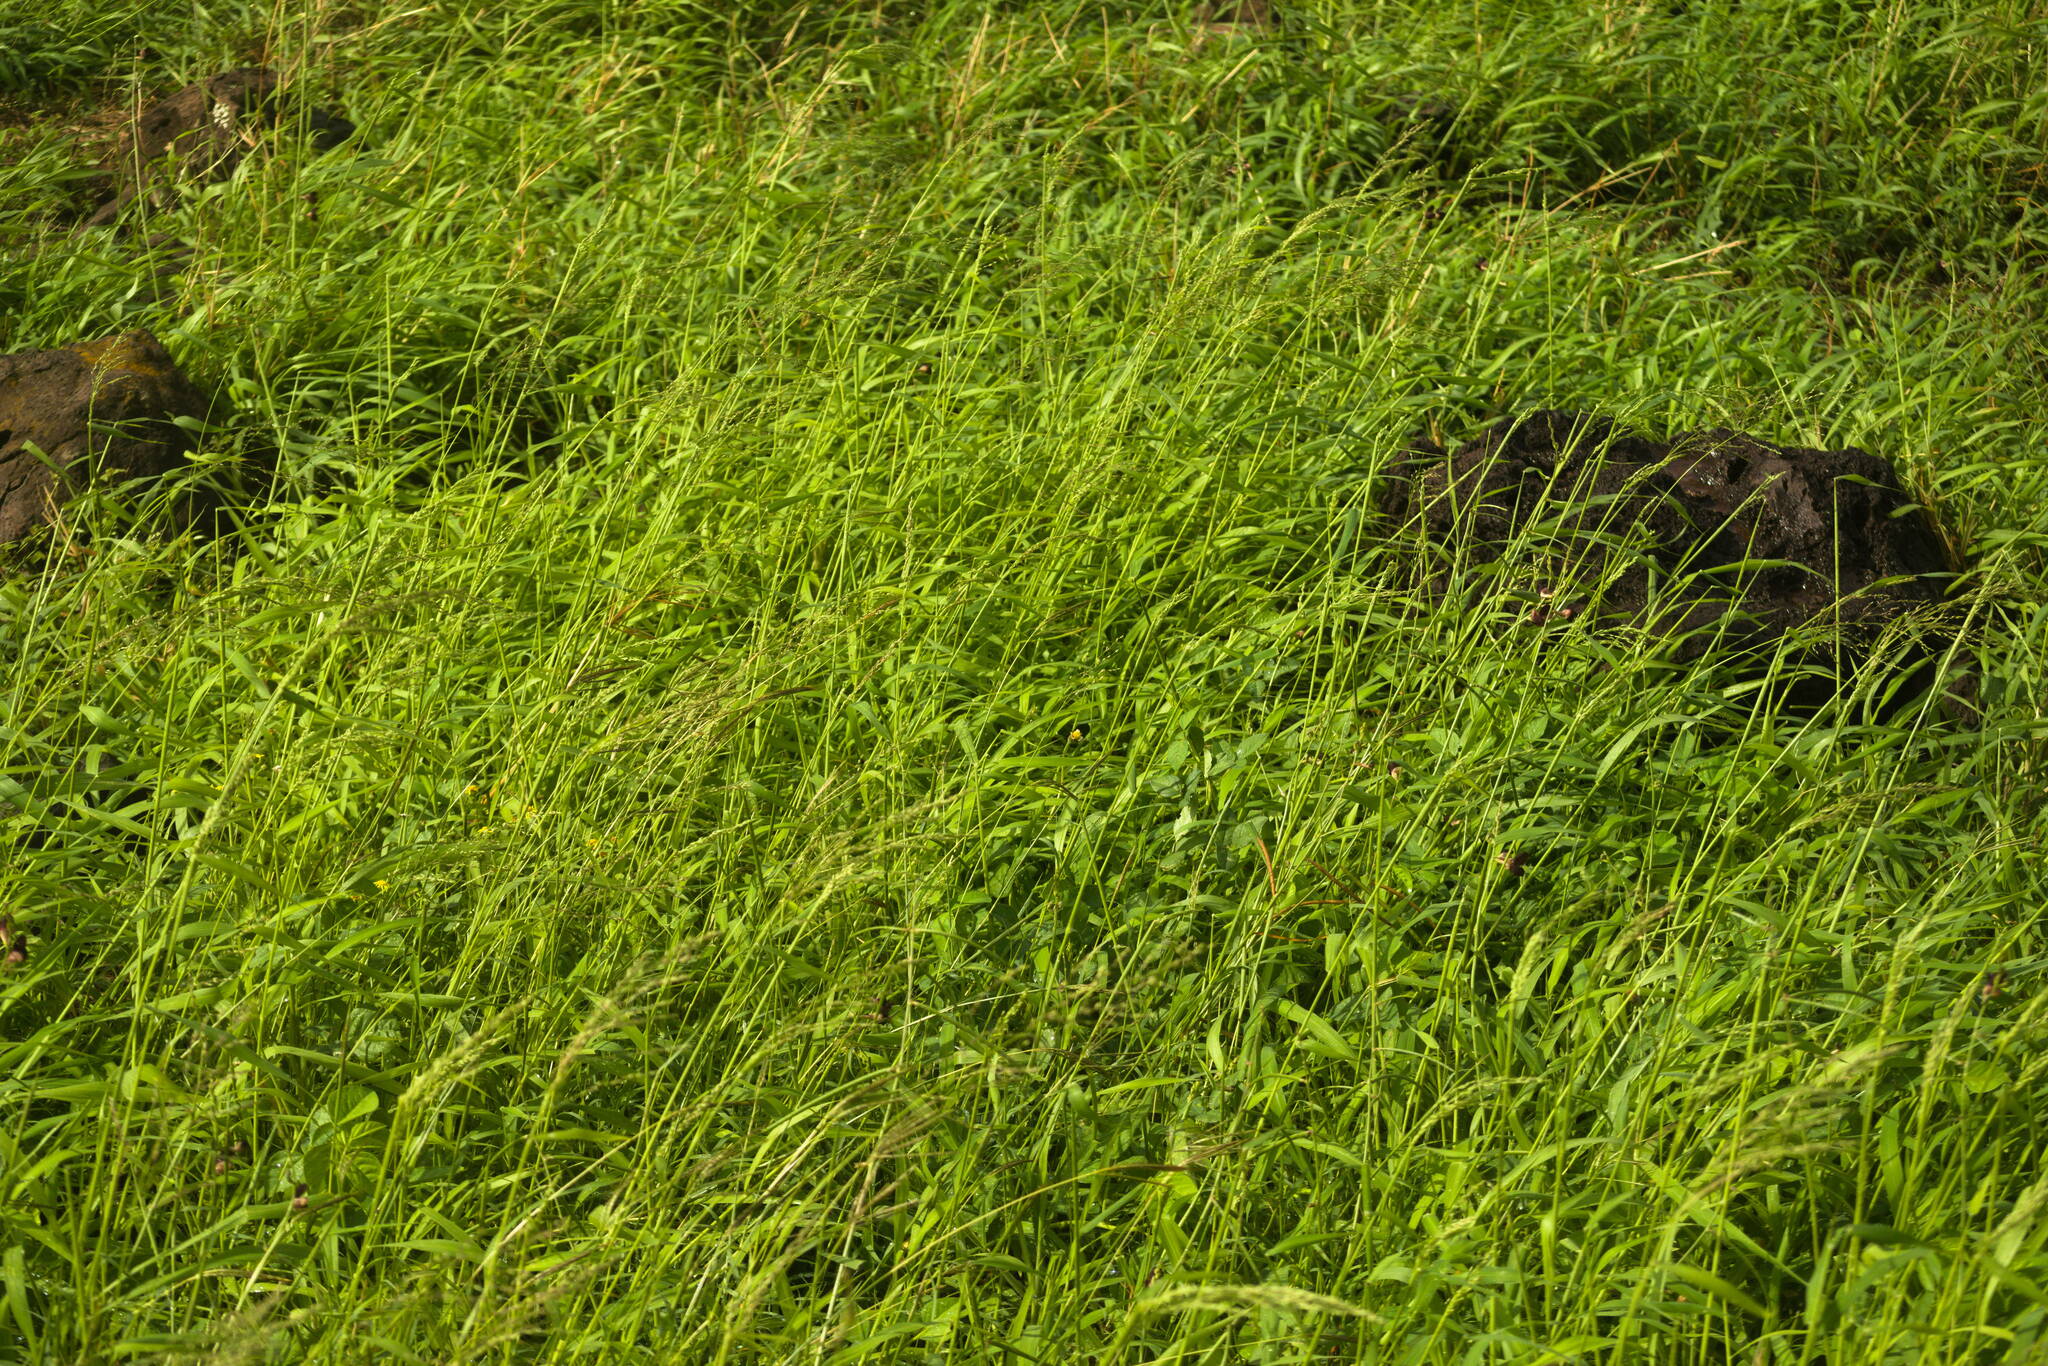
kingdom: Plantae
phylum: Tracheophyta
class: Liliopsida
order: Poales
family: Poaceae
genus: Megathyrsus
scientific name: Megathyrsus maximus
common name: Guineagrass
